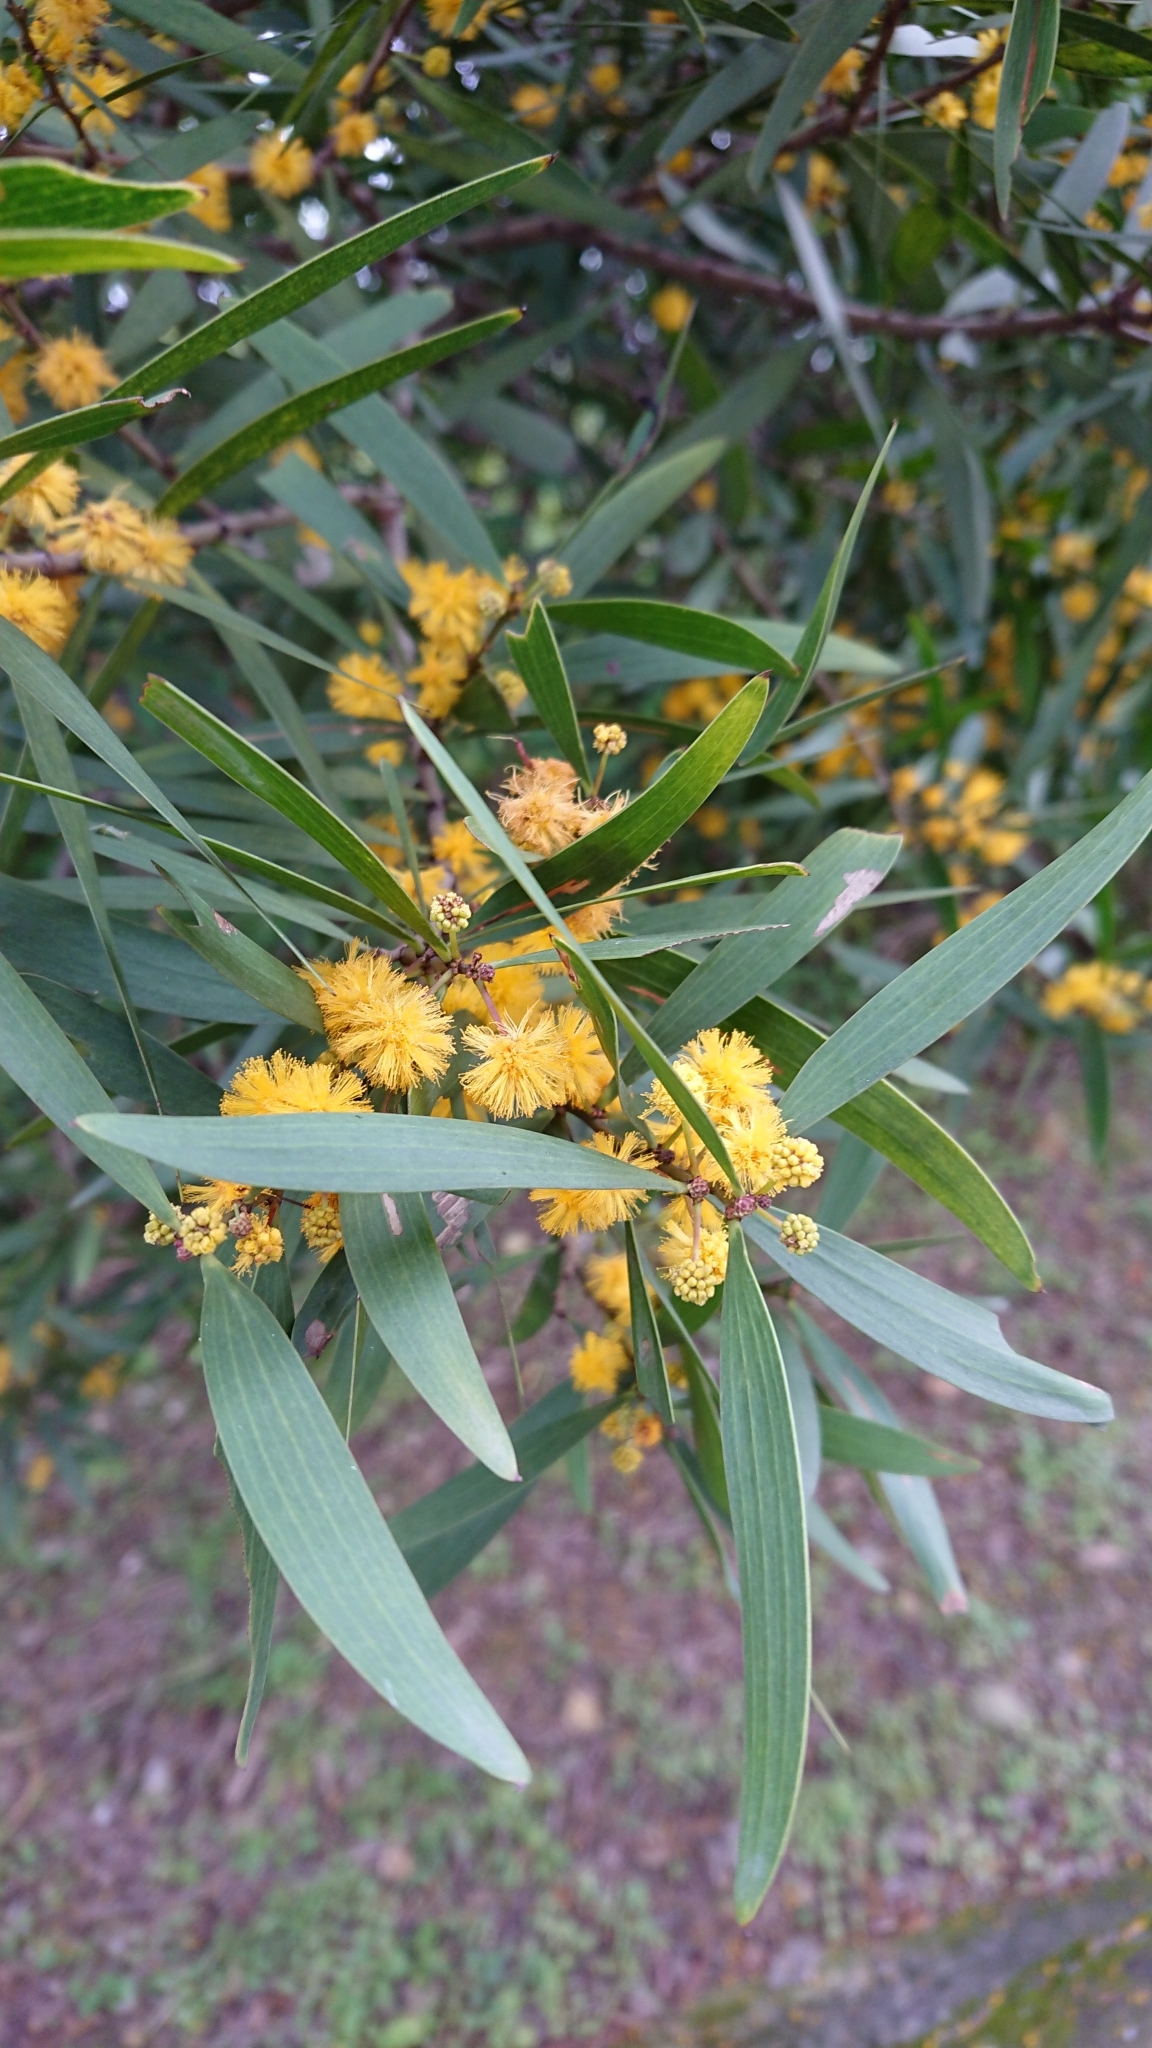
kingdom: Plantae
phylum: Tracheophyta
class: Magnoliopsida
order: Fabales
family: Fabaceae
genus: Acacia
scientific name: Acacia confusa
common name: Formosan koa
